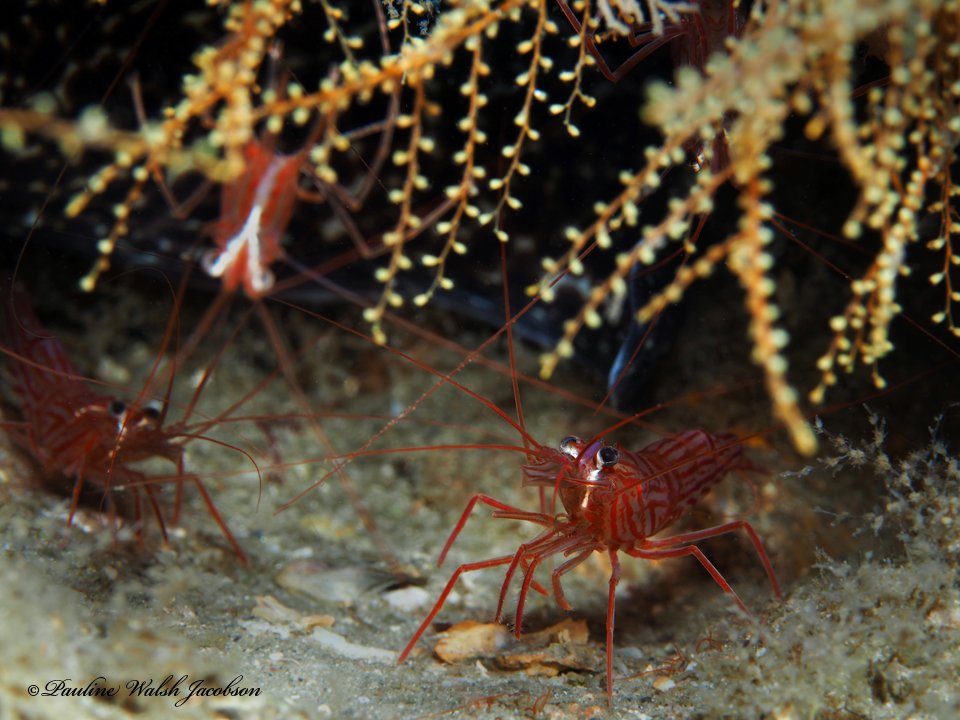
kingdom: Animalia
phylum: Arthropoda
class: Malacostraca
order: Decapoda
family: Lysmatidae
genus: Lysmata
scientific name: Lysmata rafa
